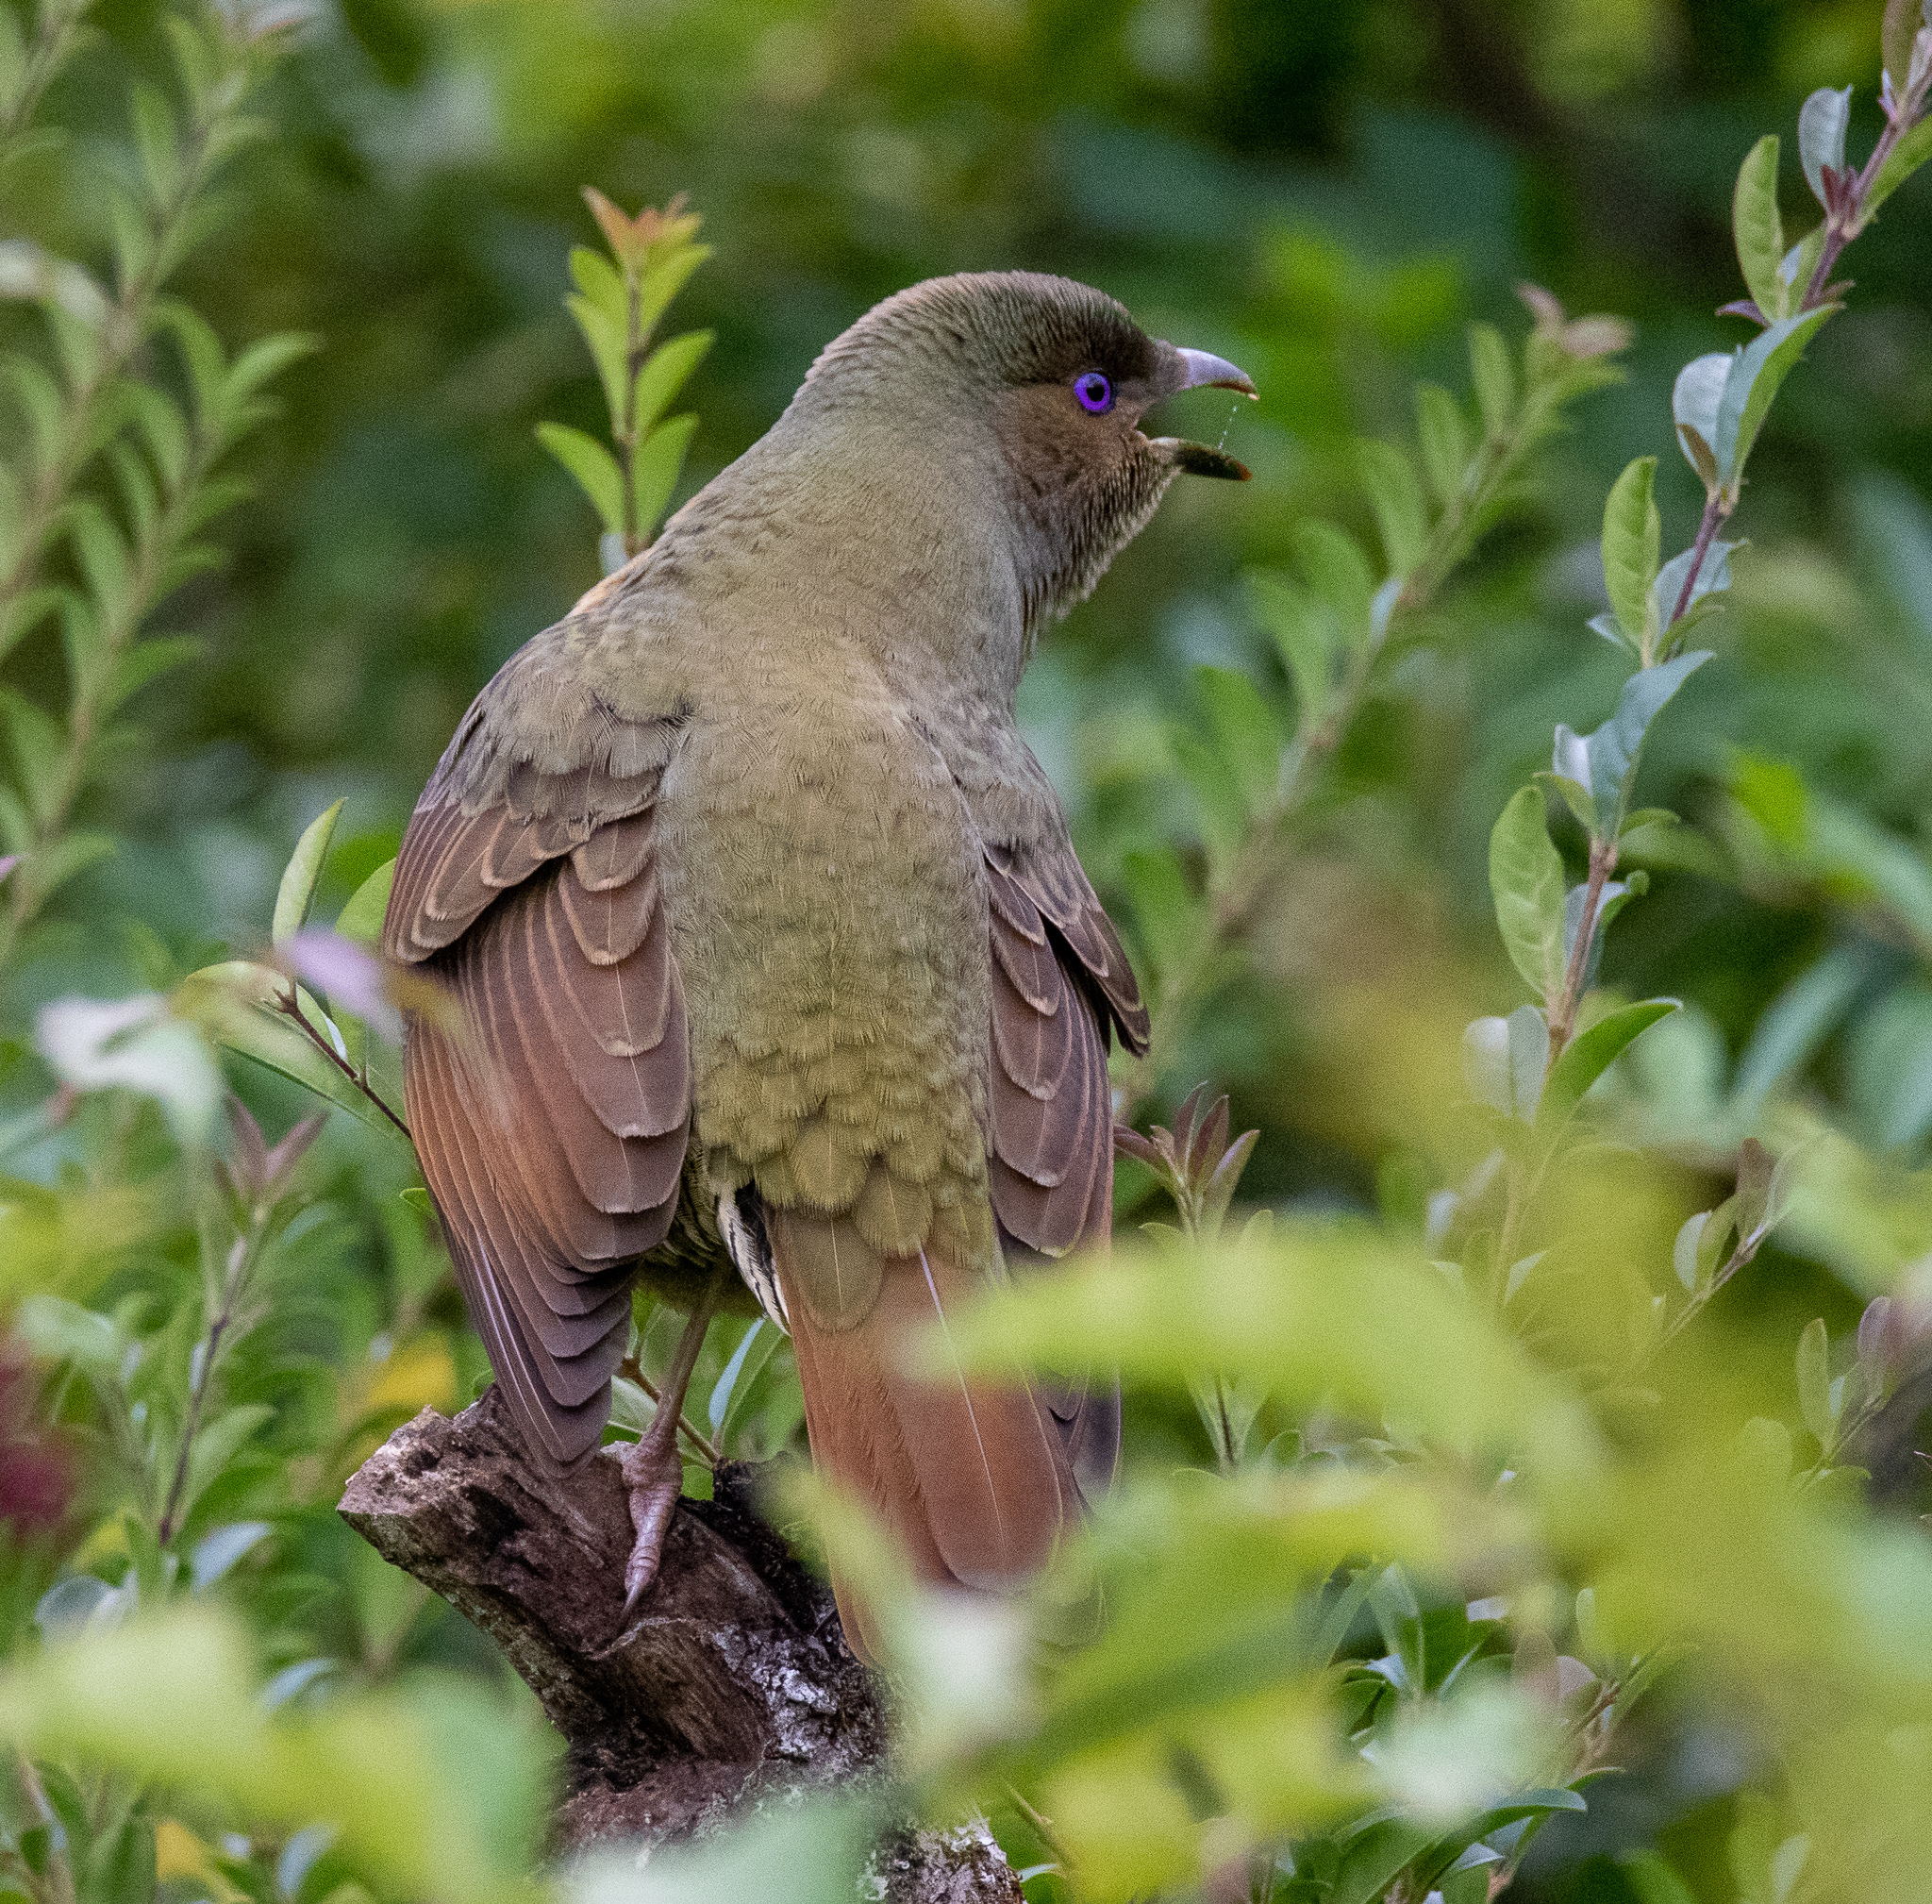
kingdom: Animalia
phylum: Chordata
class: Aves
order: Passeriformes
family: Ptilonorhynchidae
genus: Ptilonorhynchus
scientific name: Ptilonorhynchus violaceus
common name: Satin bowerbird
